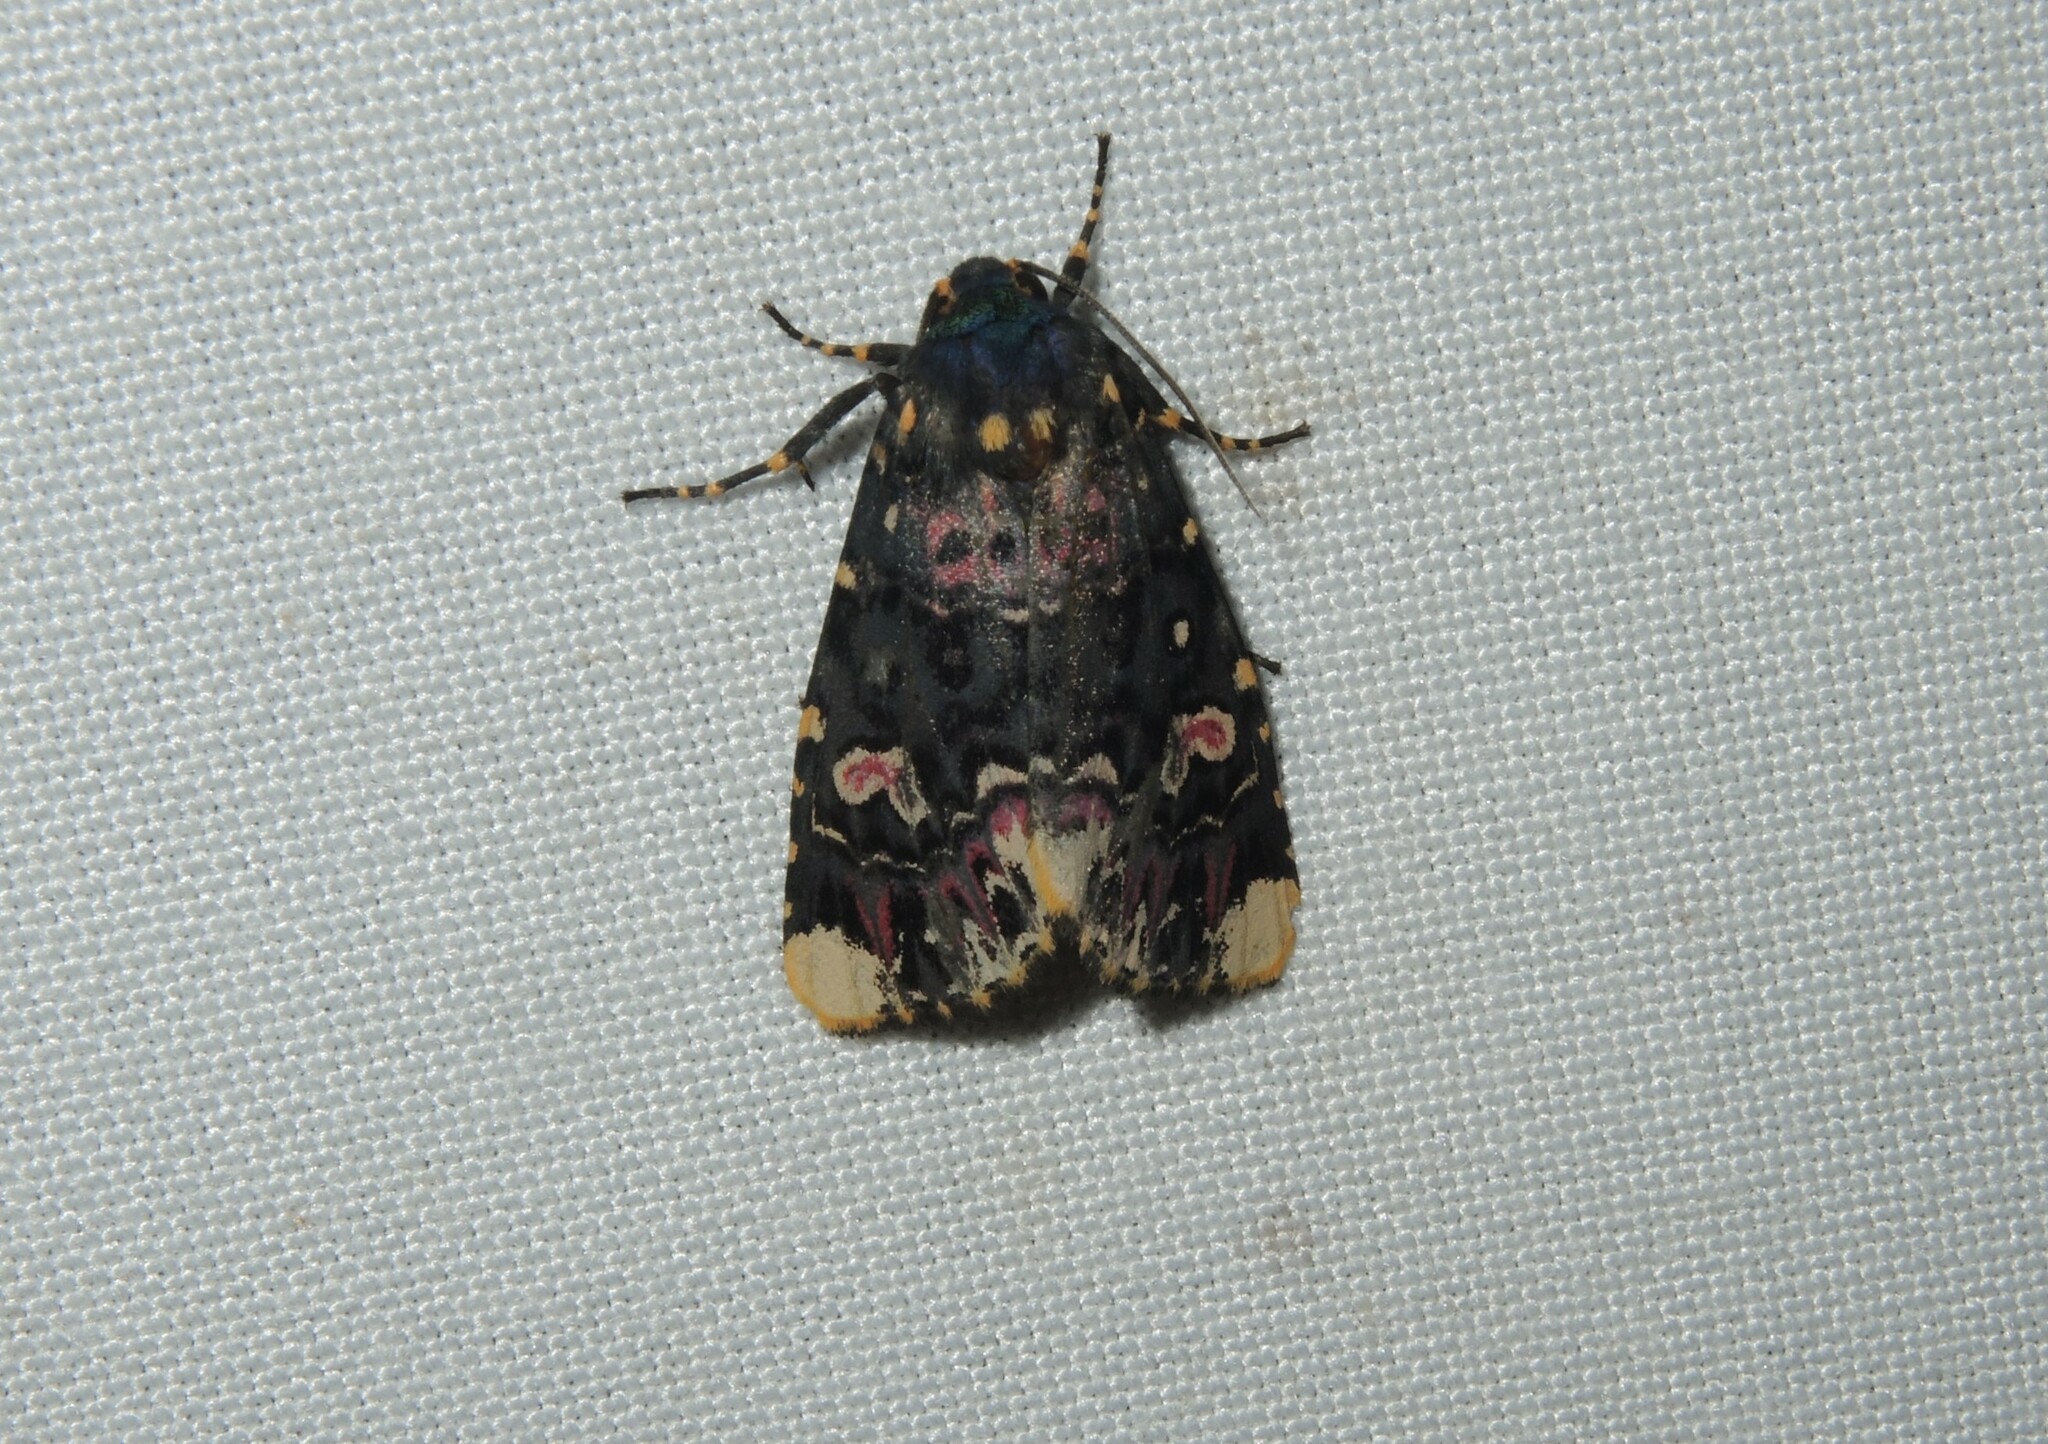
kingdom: Animalia
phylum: Arthropoda
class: Insecta
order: Lepidoptera
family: Noctuidae
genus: Polytela
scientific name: Polytela gloriosae
